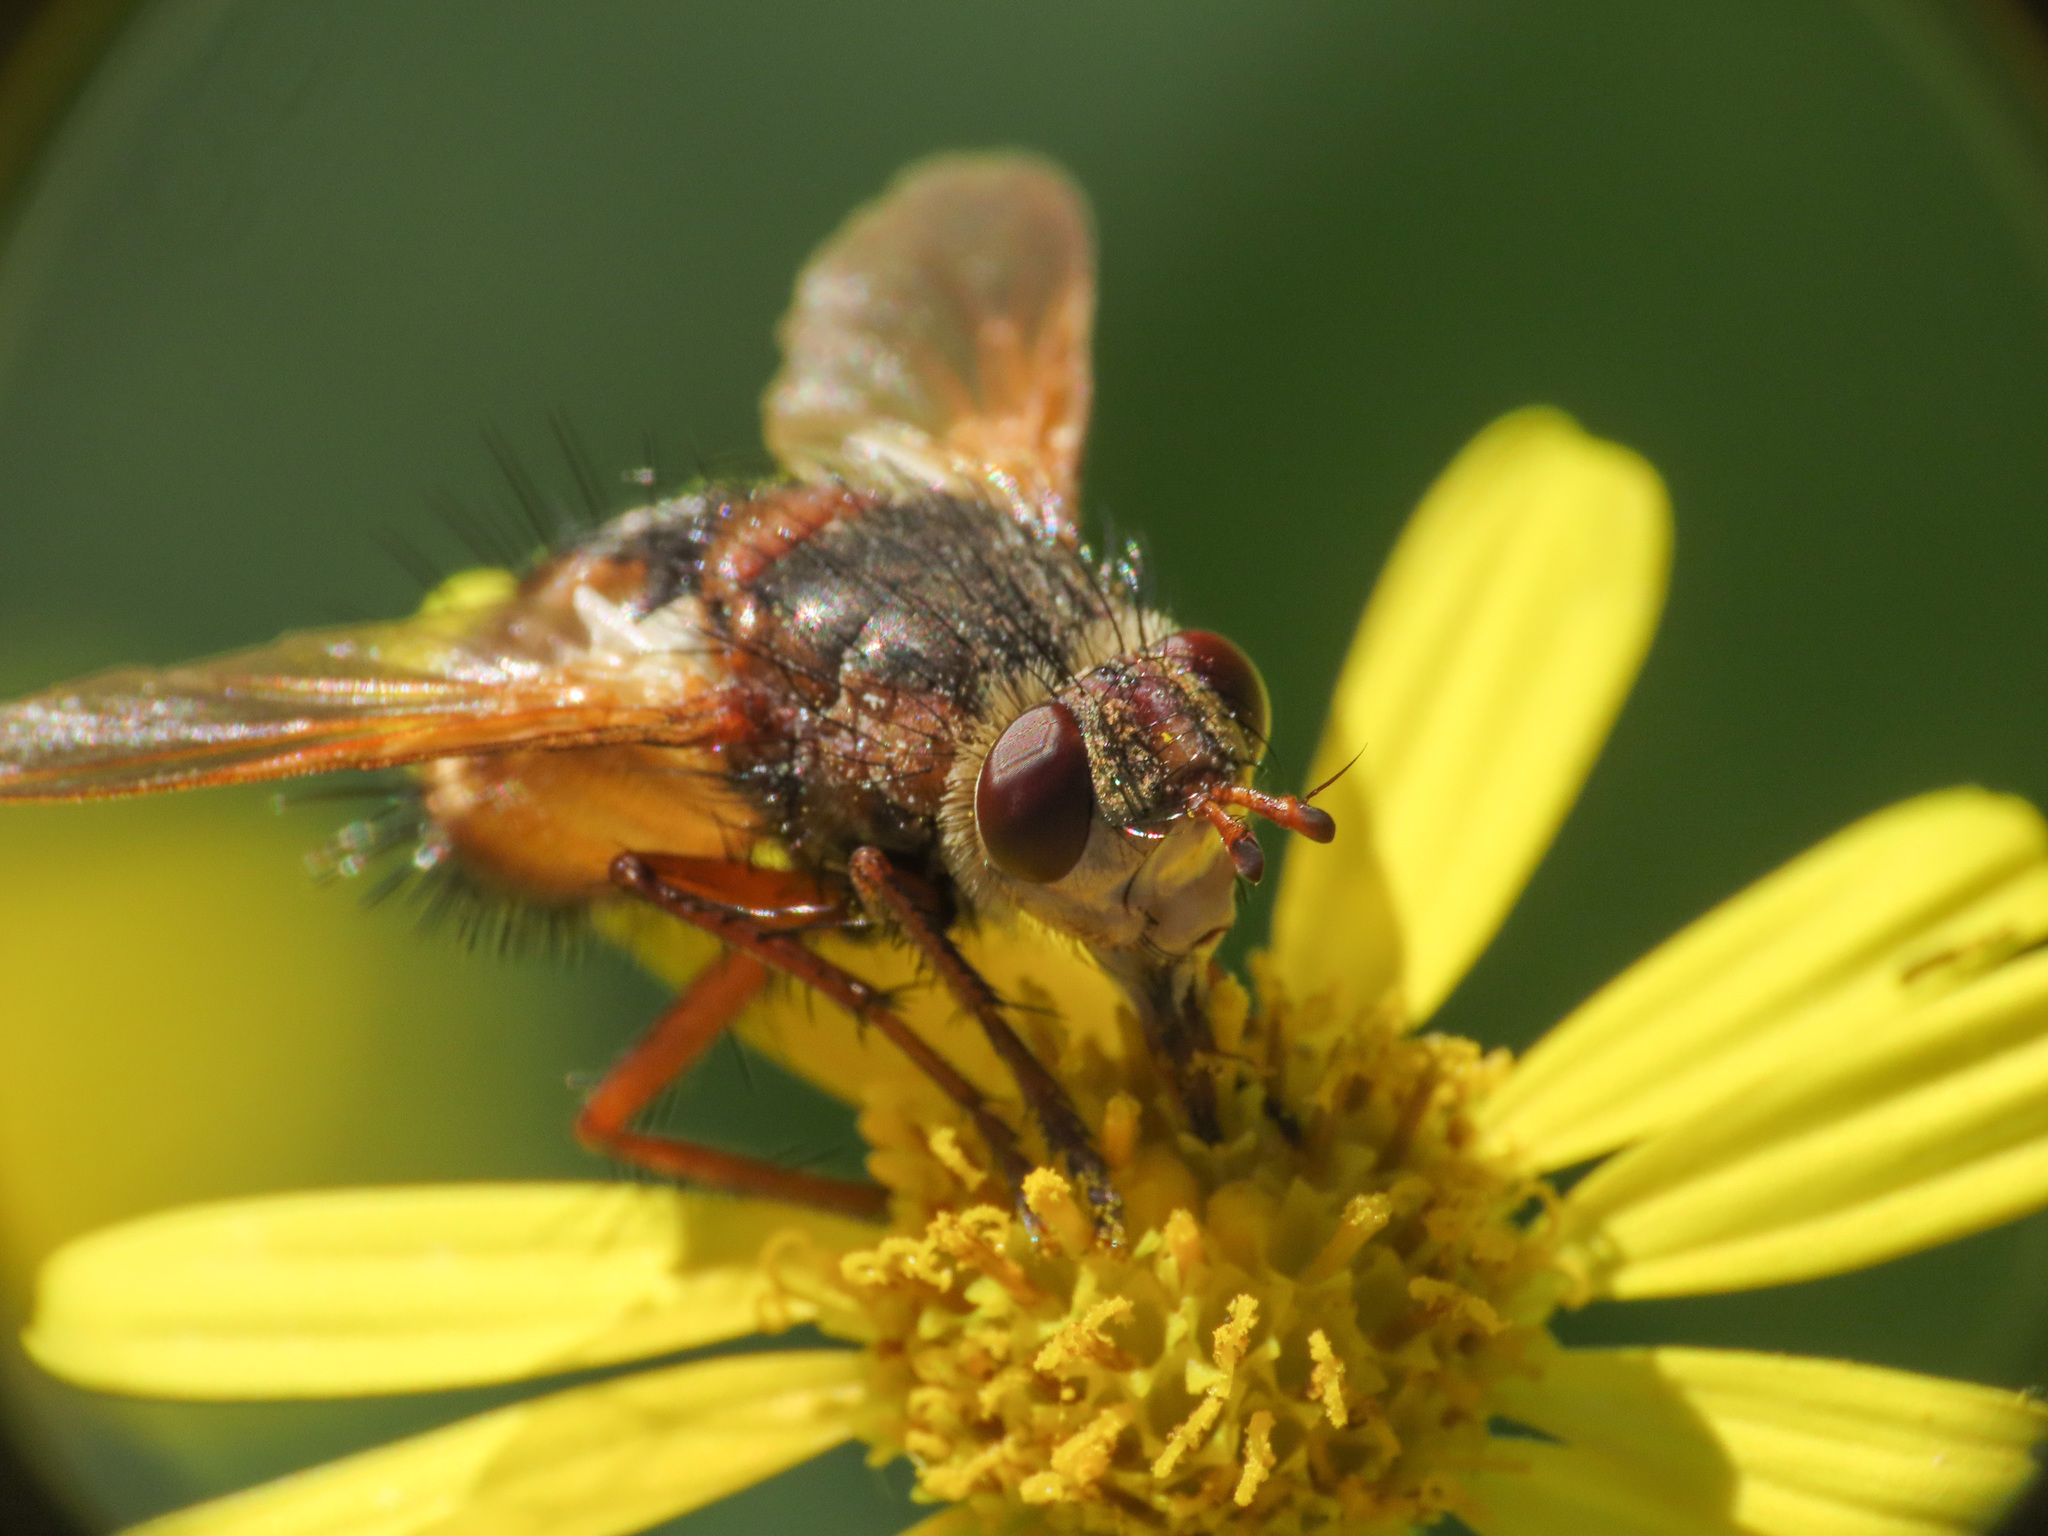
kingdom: Animalia
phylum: Arthropoda
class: Insecta
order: Diptera
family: Tachinidae
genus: Tachina
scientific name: Tachina fera
